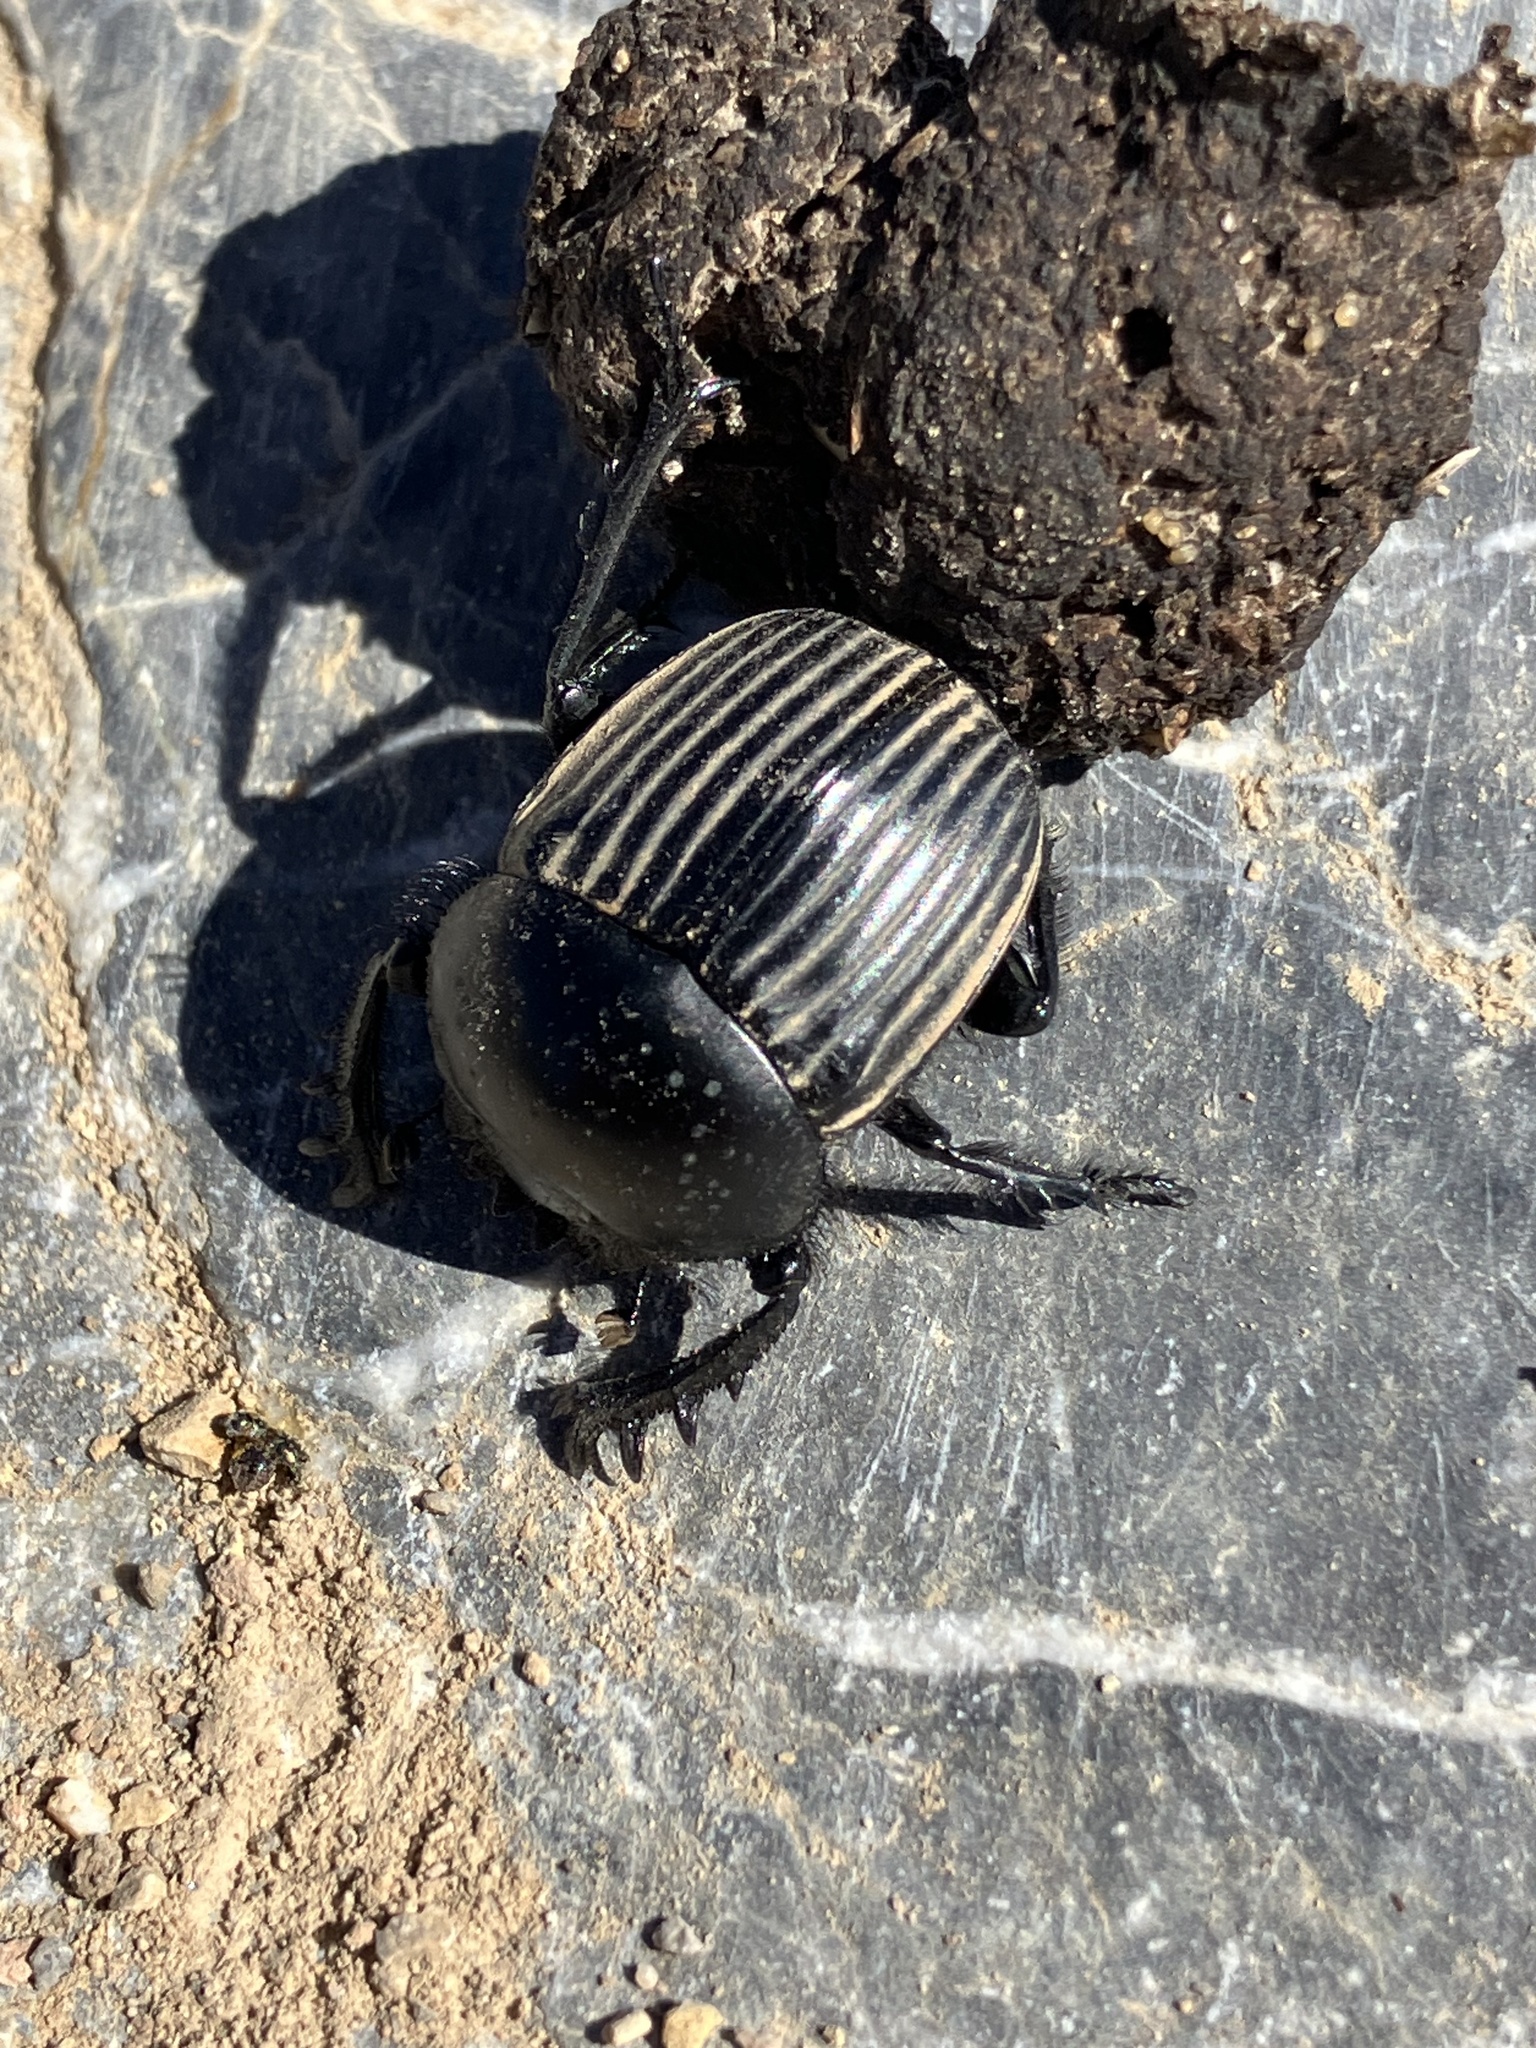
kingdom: Animalia
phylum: Arthropoda
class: Insecta
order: Coleoptera
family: Scarabaeidae
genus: Ateuchetus
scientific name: Ateuchetus laticollis
